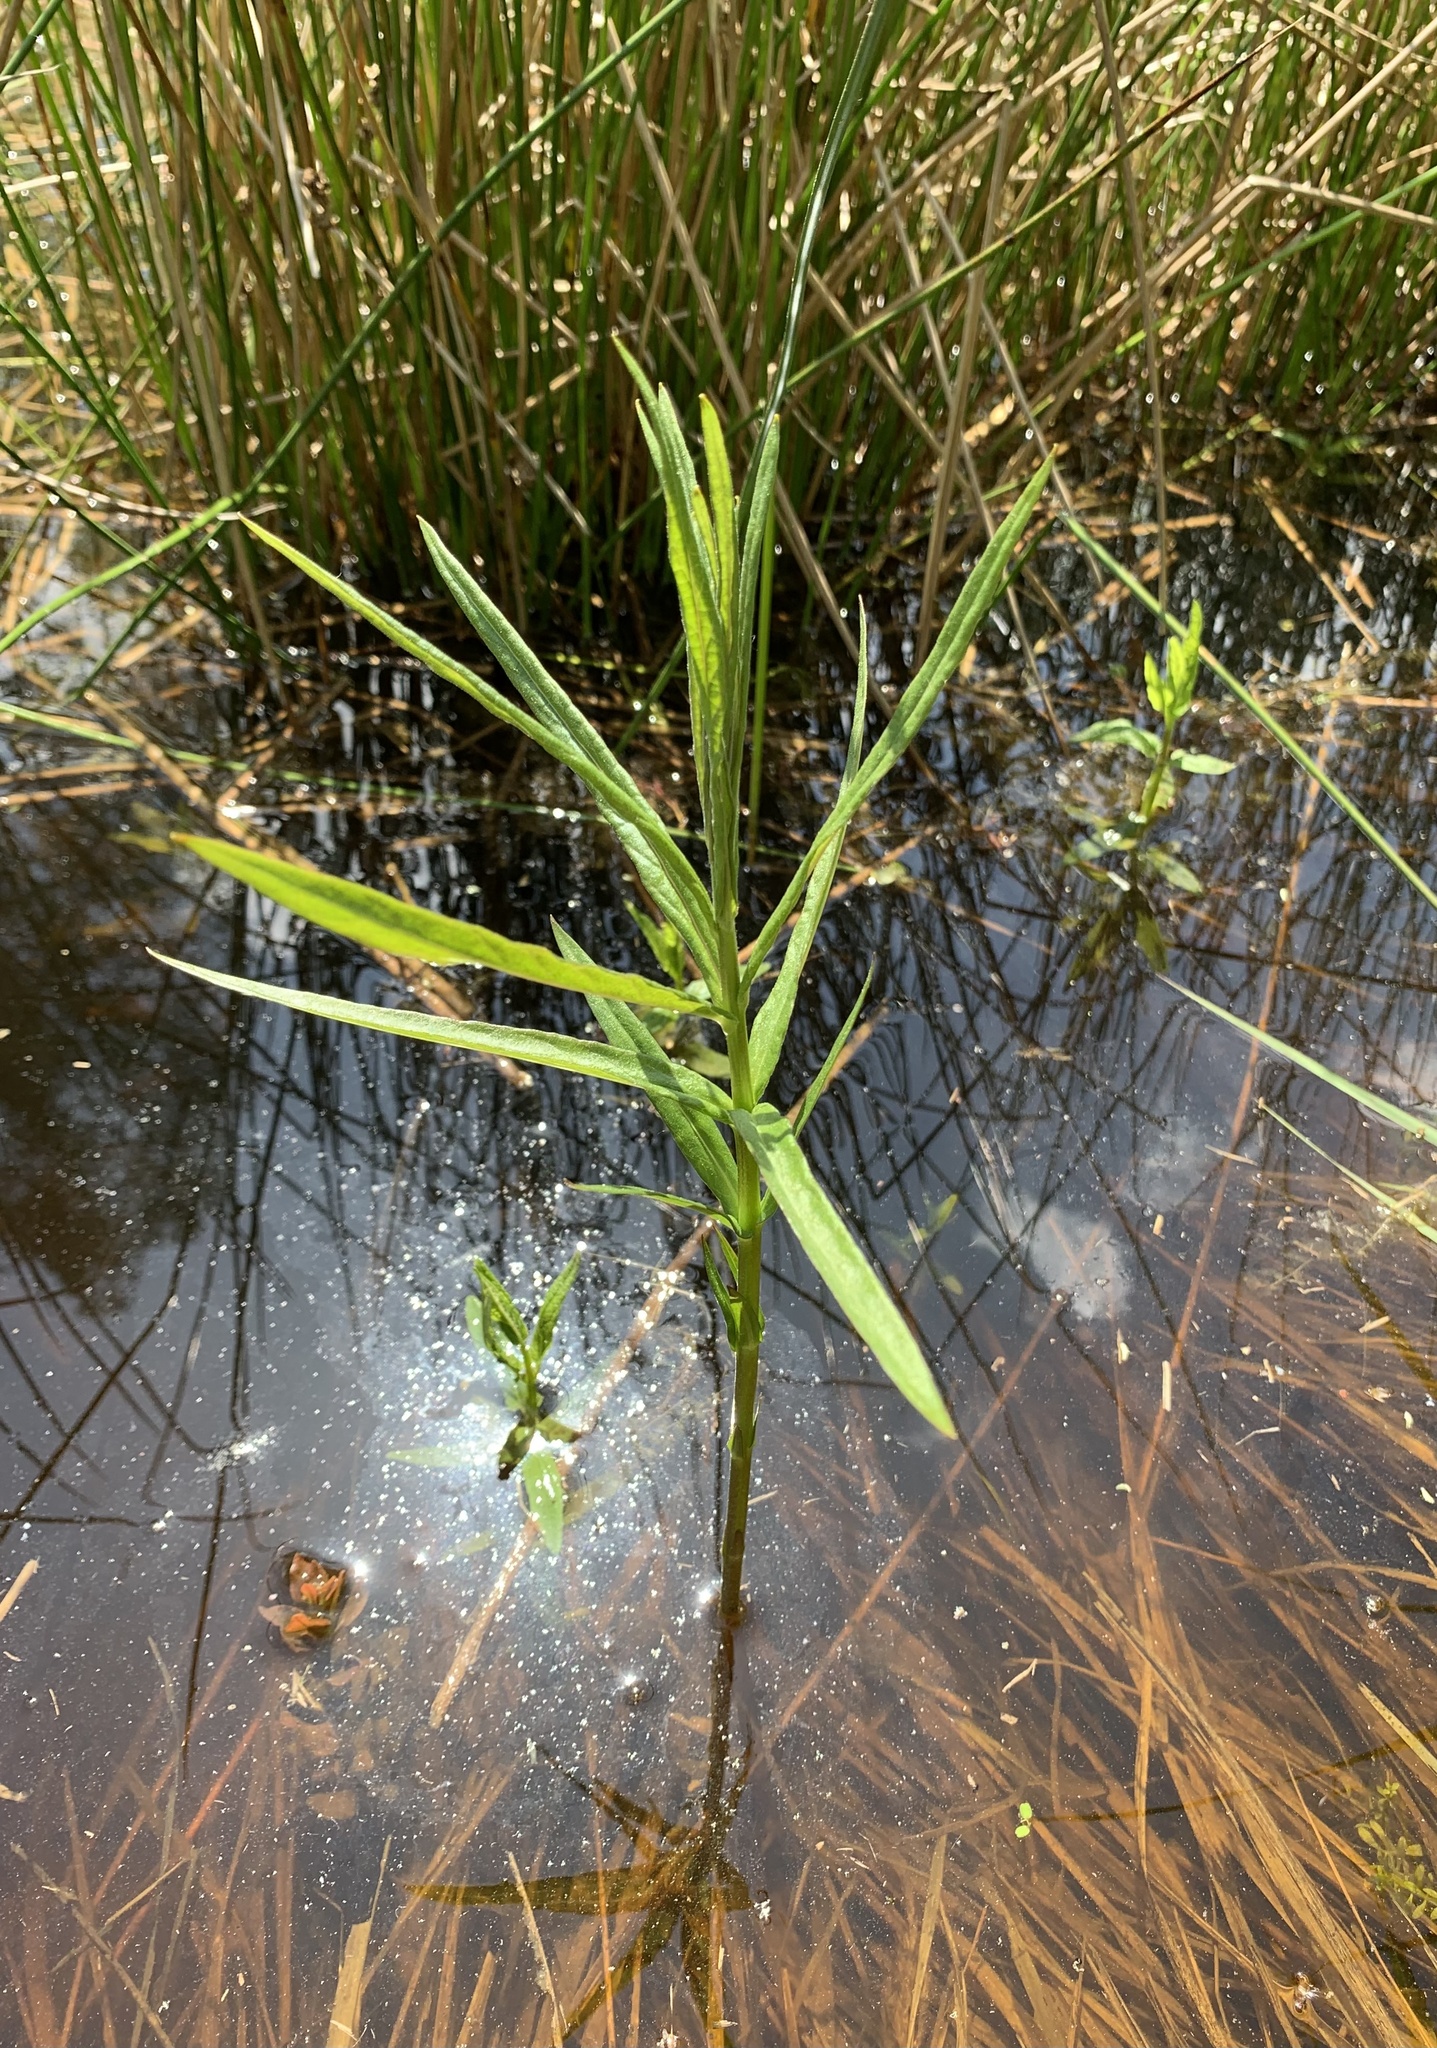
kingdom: Plantae
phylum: Tracheophyta
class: Magnoliopsida
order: Ericales
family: Primulaceae
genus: Lysimachia
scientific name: Lysimachia thyrsiflora
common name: Tufted loosestrife
